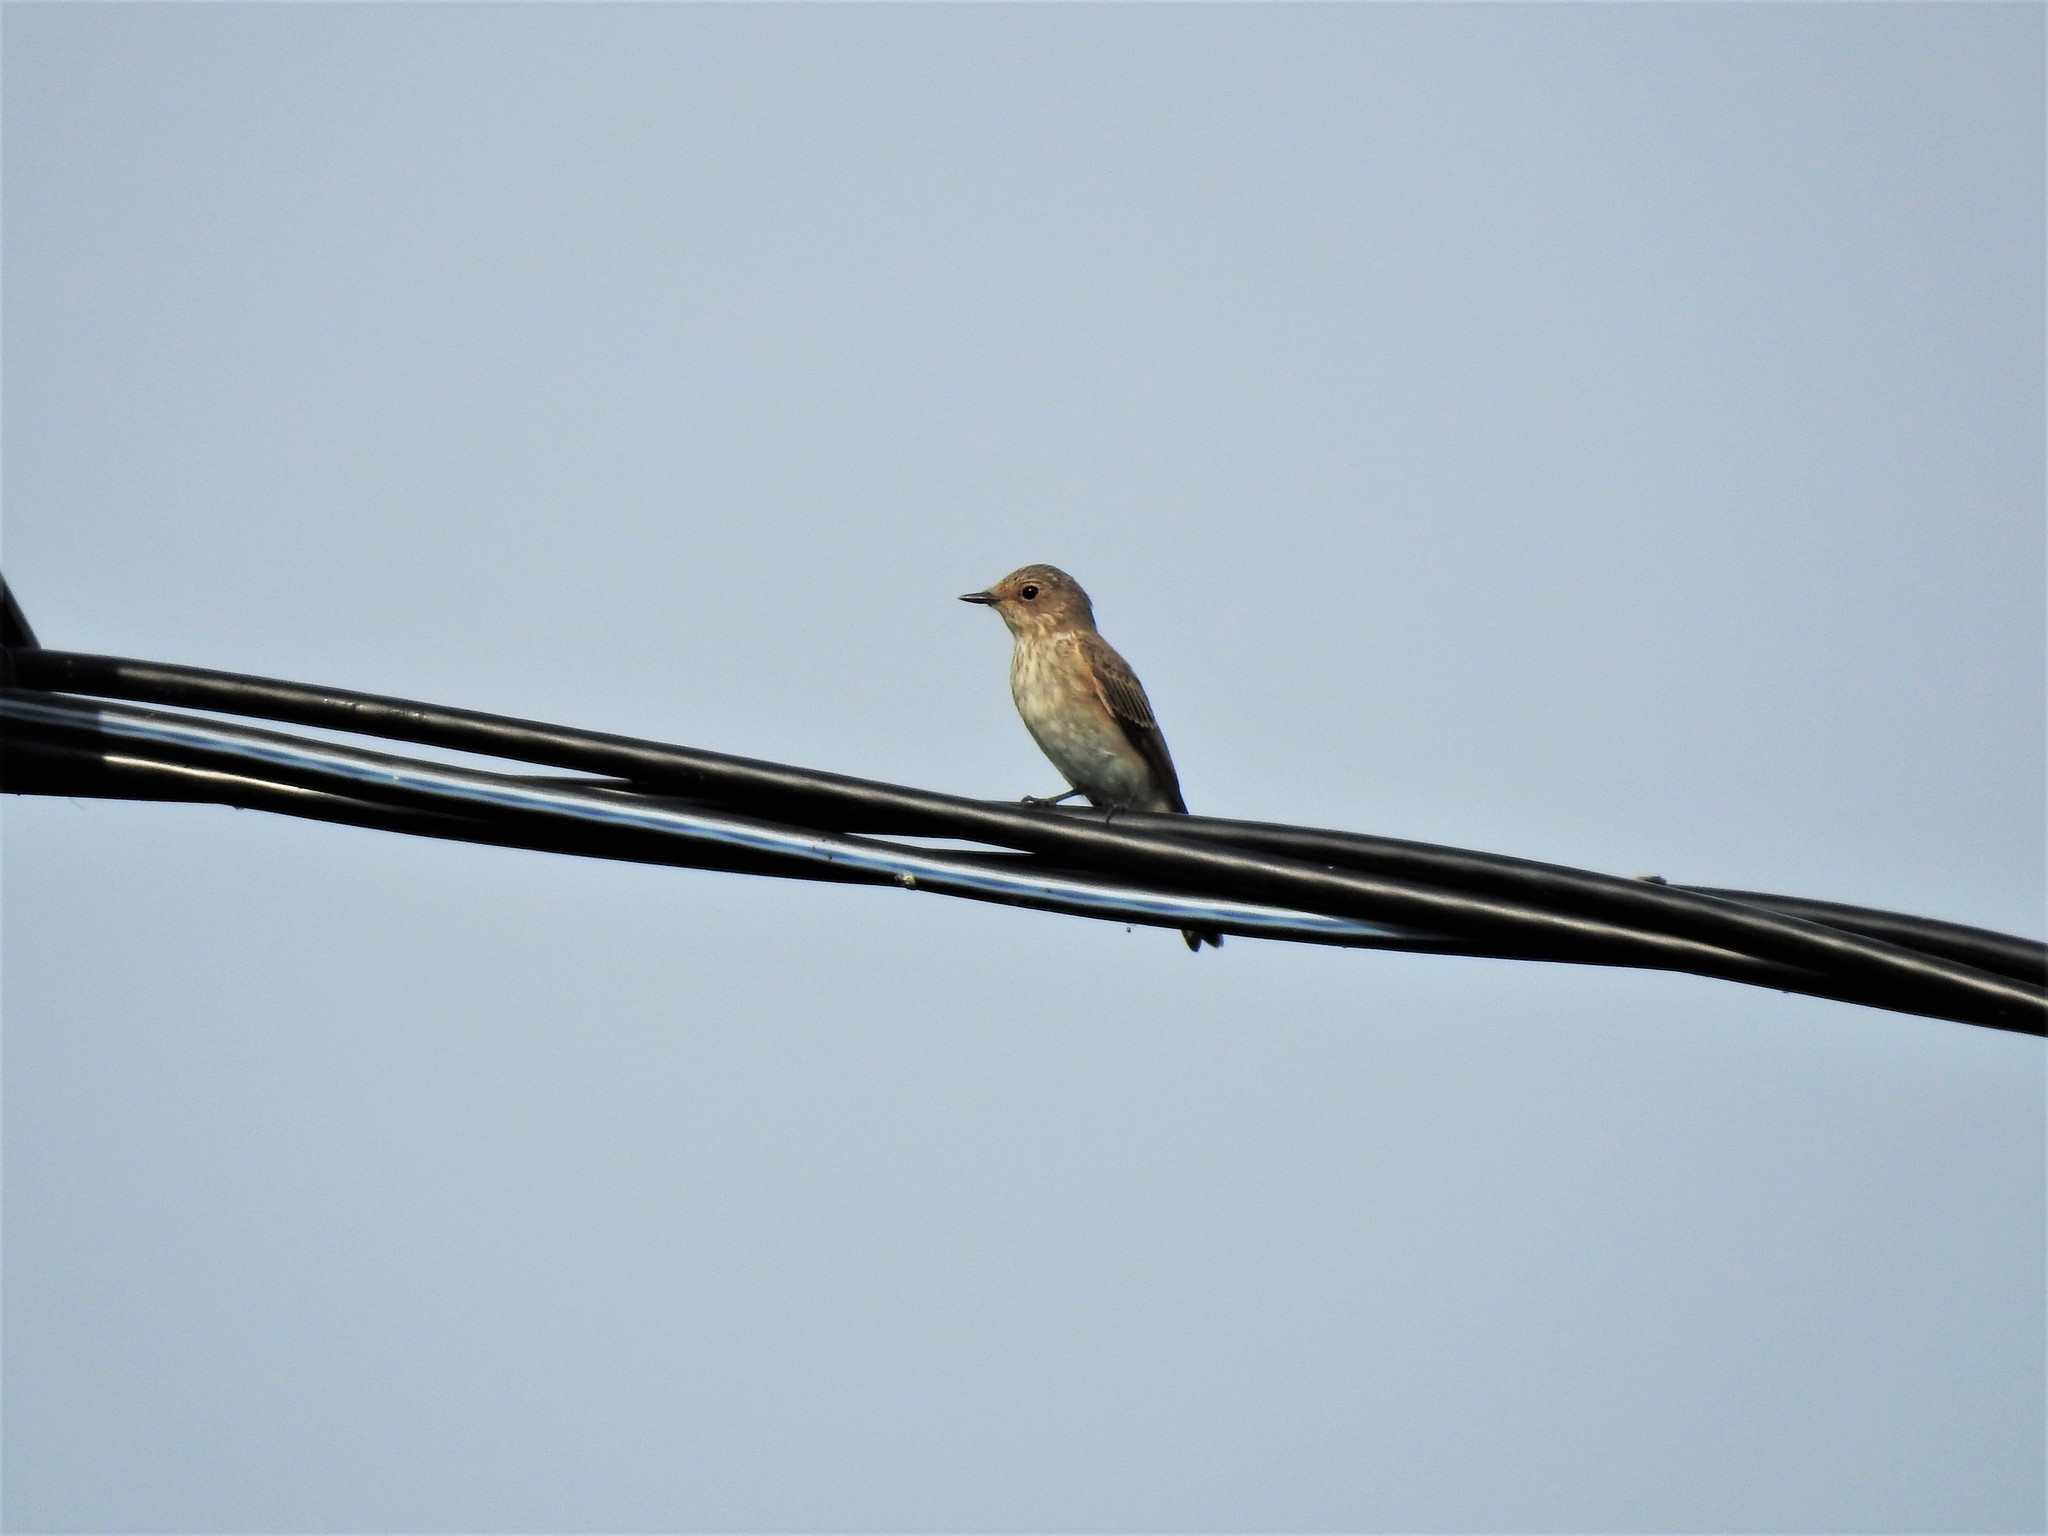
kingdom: Animalia
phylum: Chordata
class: Aves
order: Passeriformes
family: Muscicapidae
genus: Muscicapa
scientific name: Muscicapa striata
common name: Spotted flycatcher
